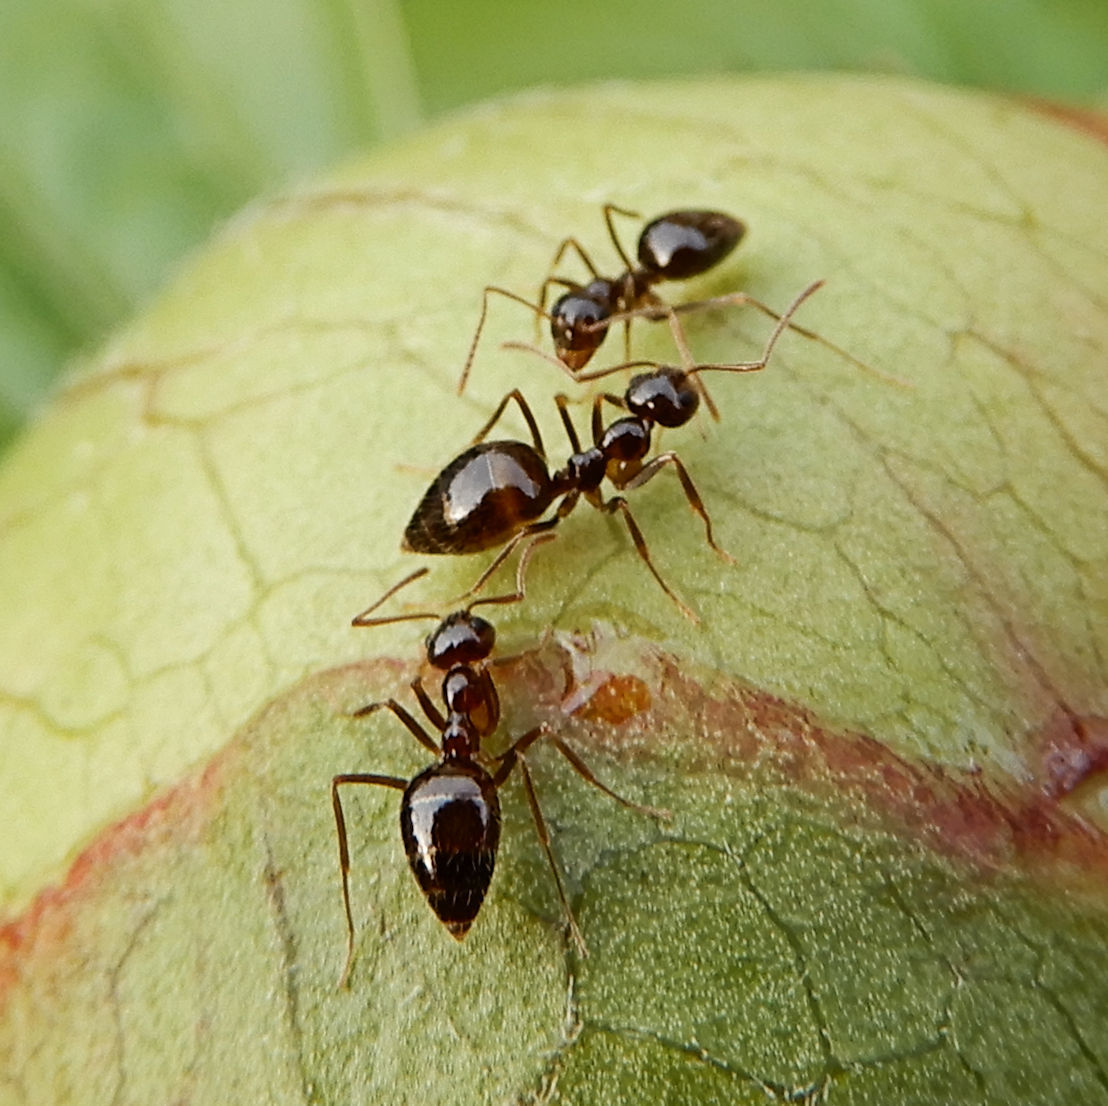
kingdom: Animalia
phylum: Arthropoda
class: Insecta
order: Hymenoptera
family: Formicidae
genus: Prenolepis
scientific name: Prenolepis imparis
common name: Small honey ant
